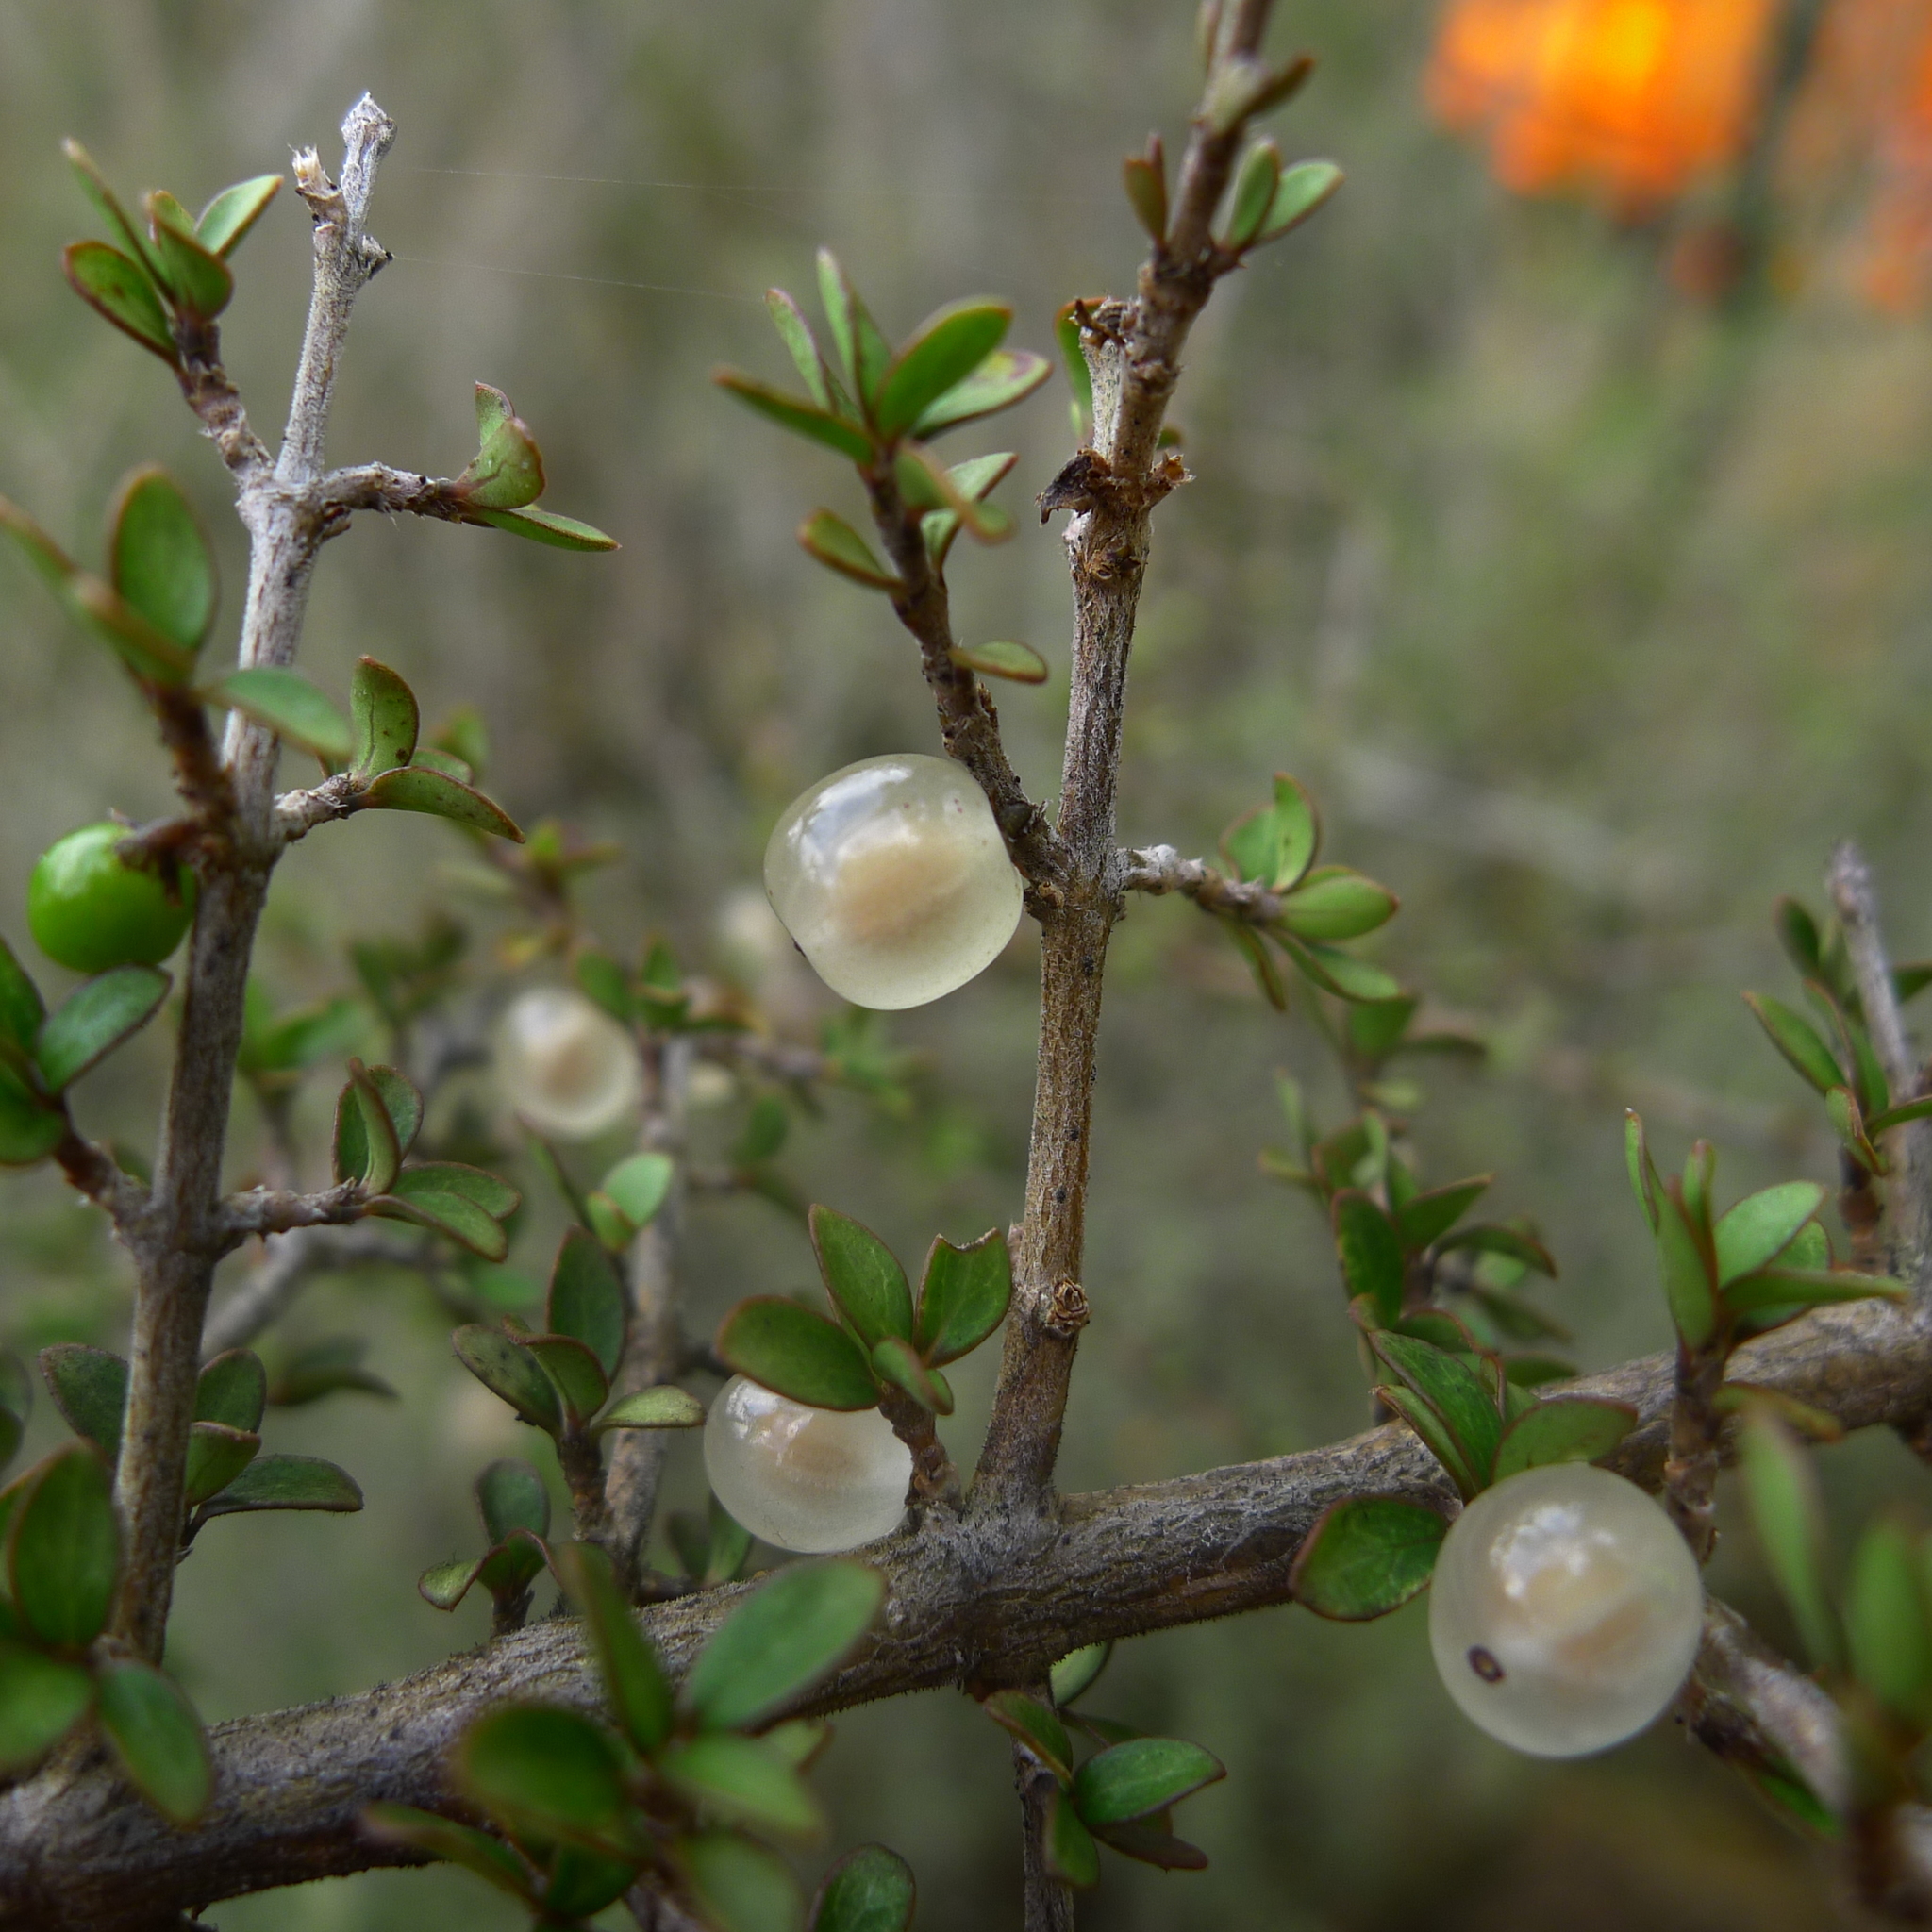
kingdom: Plantae
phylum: Tracheophyta
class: Magnoliopsida
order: Gentianales
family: Rubiaceae
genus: Coprosma
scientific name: Coprosma dumosa
